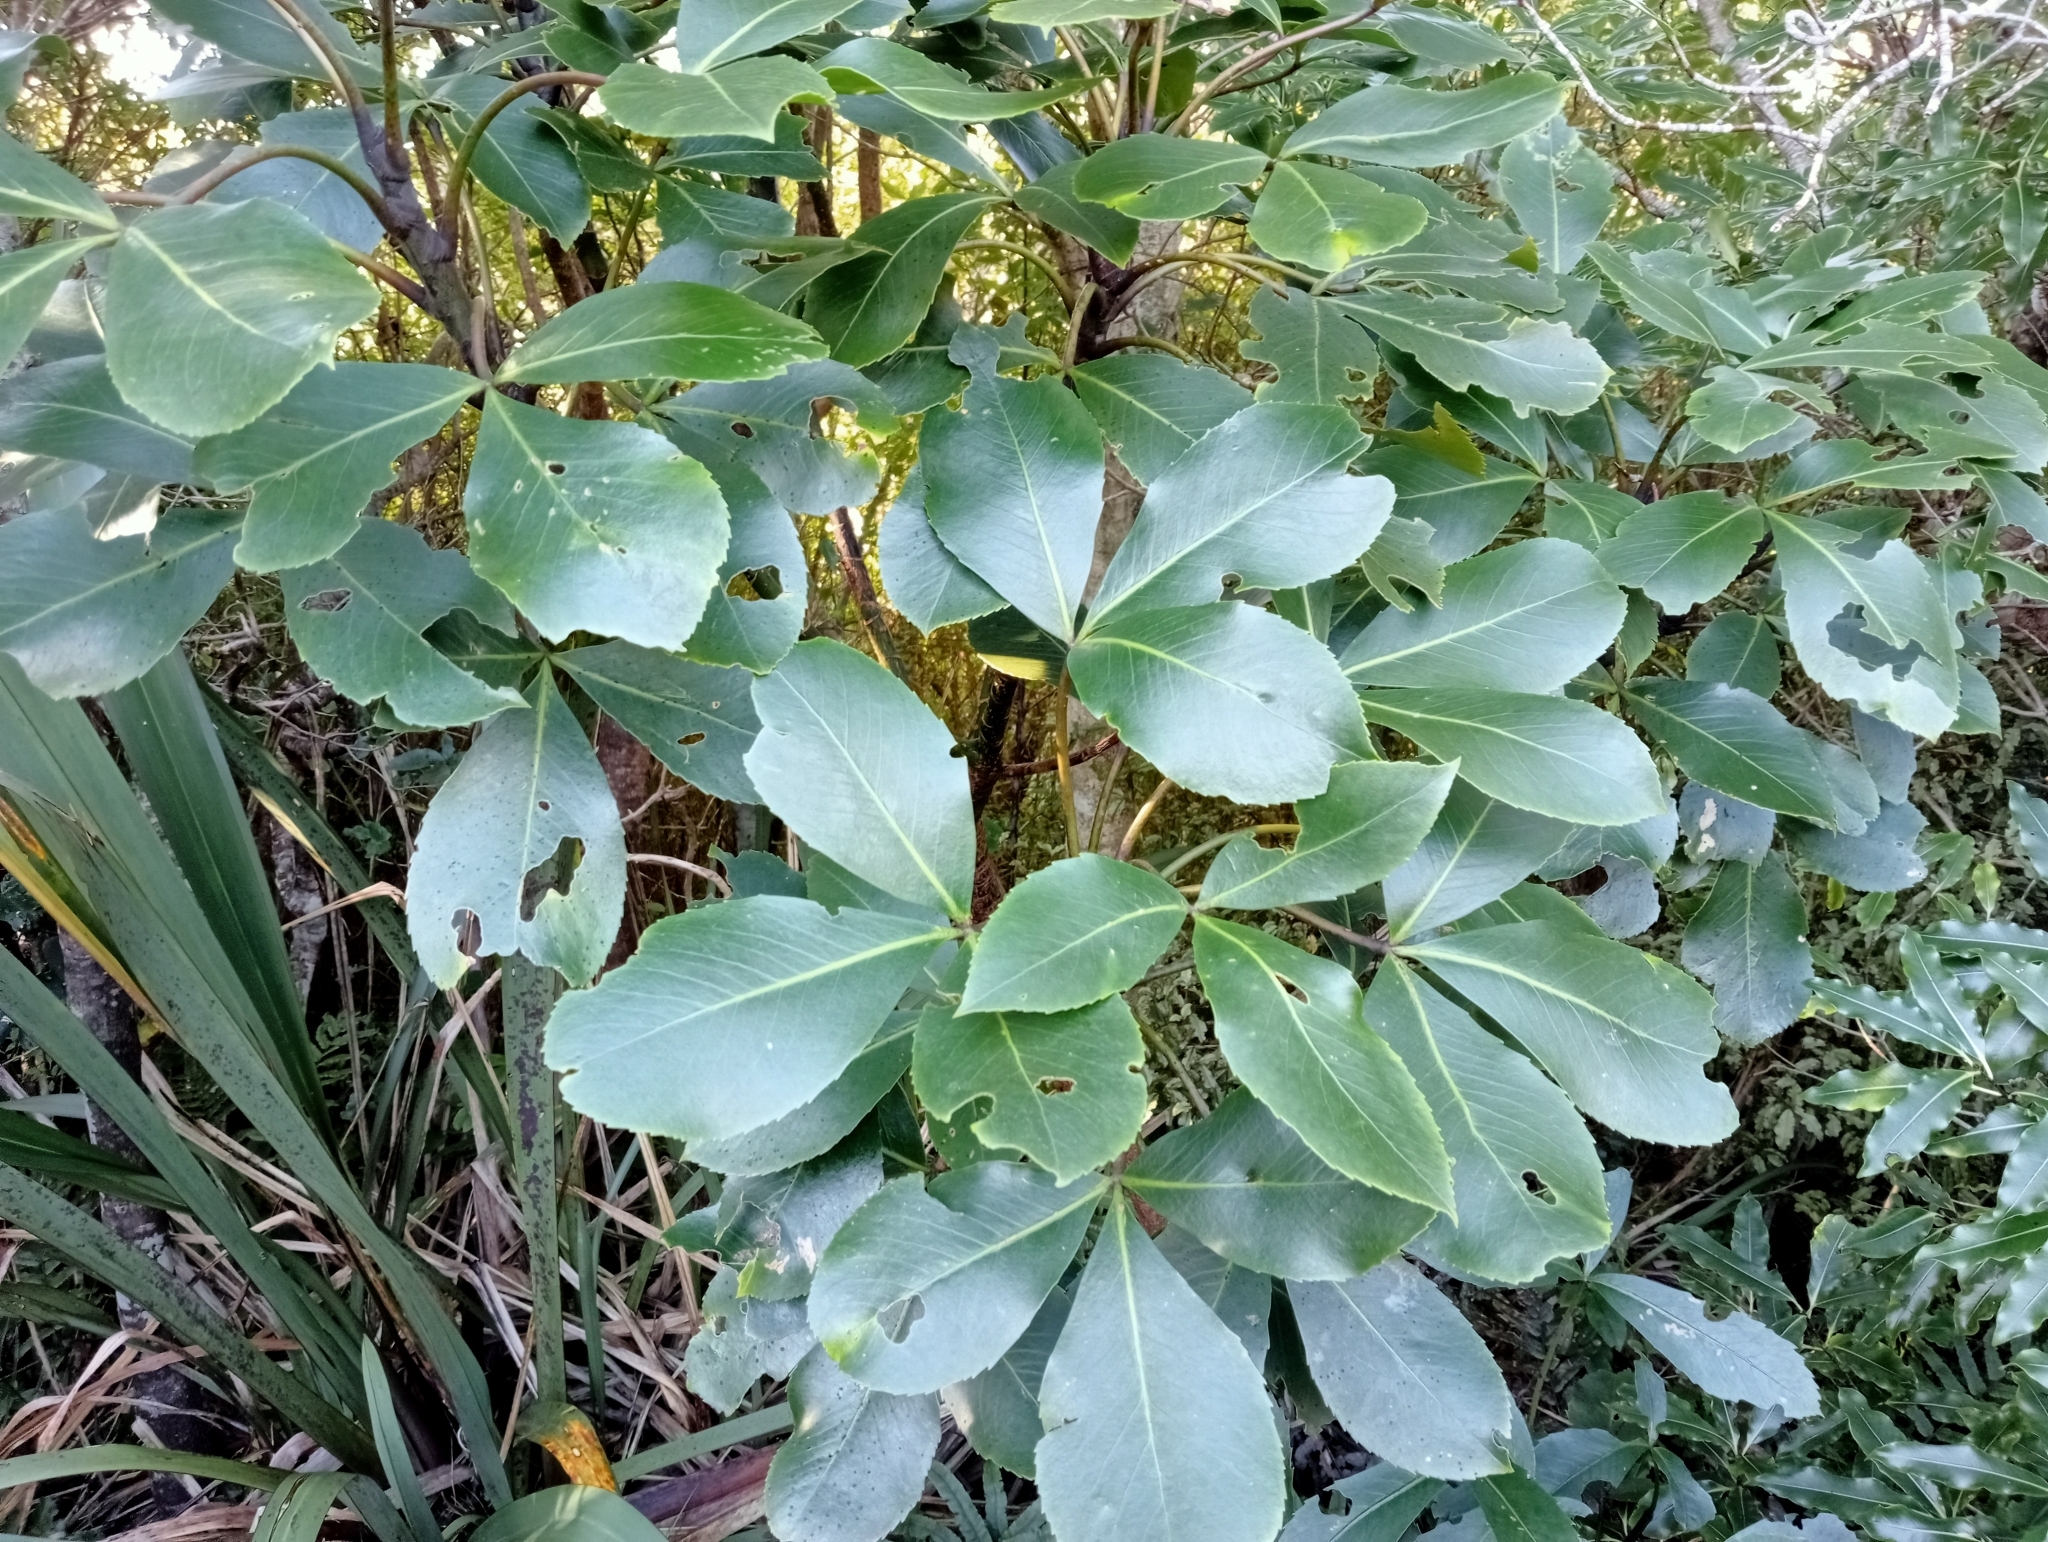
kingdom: Plantae
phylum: Tracheophyta
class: Magnoliopsida
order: Apiales
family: Araliaceae
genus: Neopanax
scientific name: Neopanax colensoi
